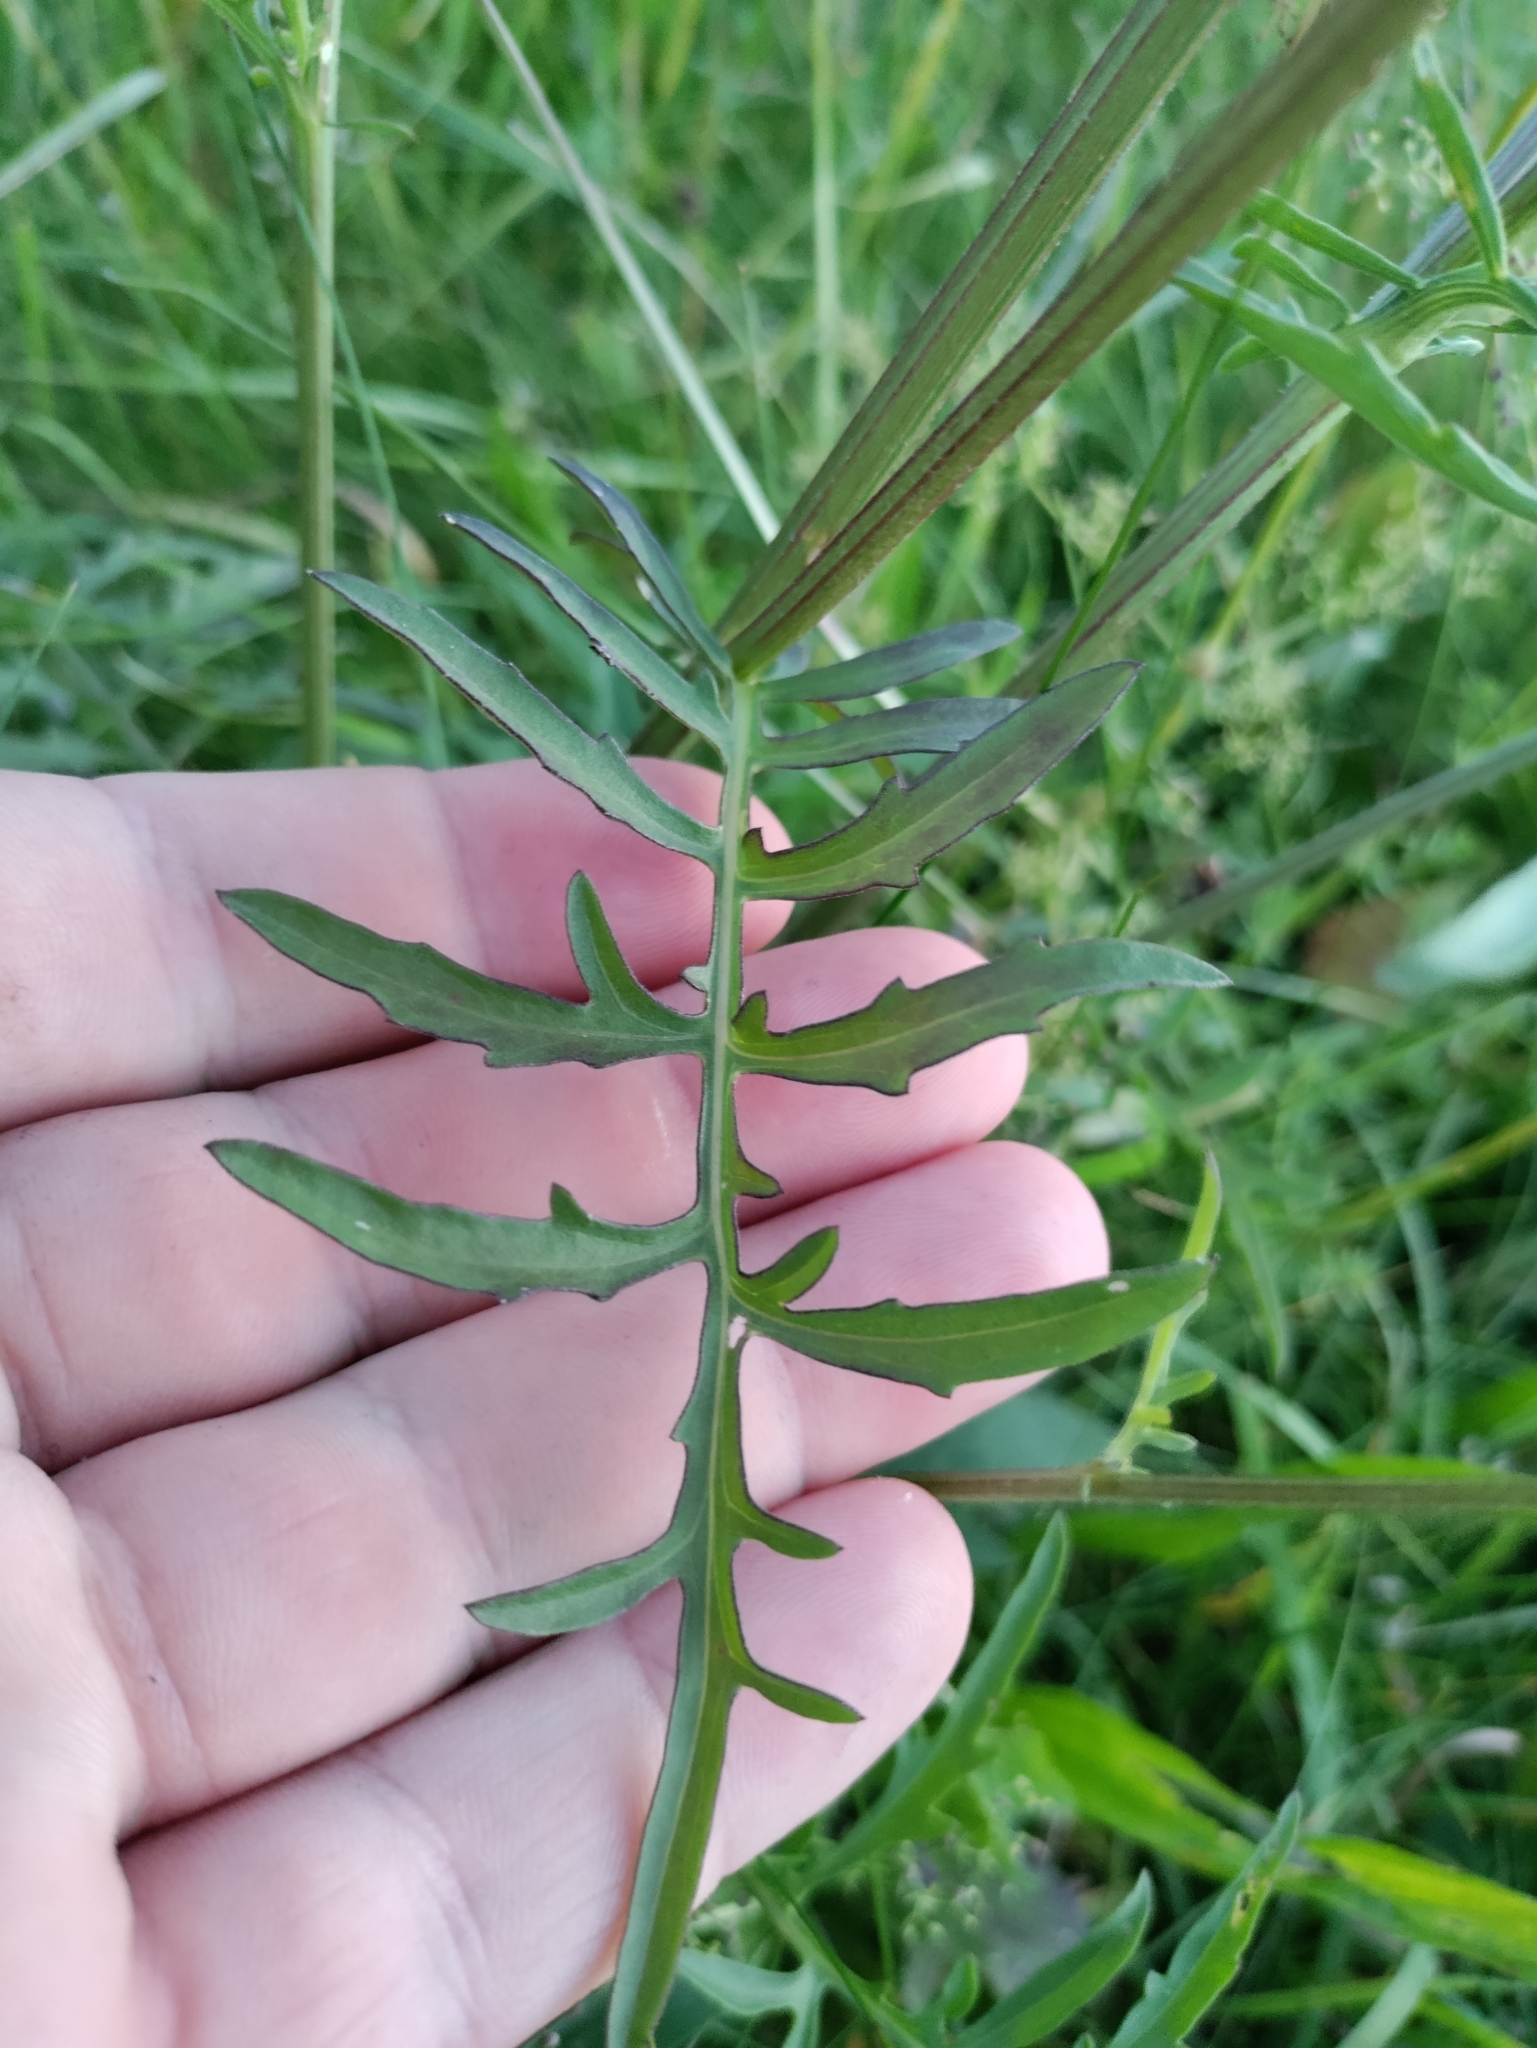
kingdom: Plantae
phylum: Tracheophyta
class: Magnoliopsida
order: Asterales
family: Asteraceae
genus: Centaurea
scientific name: Centaurea scabiosa
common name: Greater knapweed
